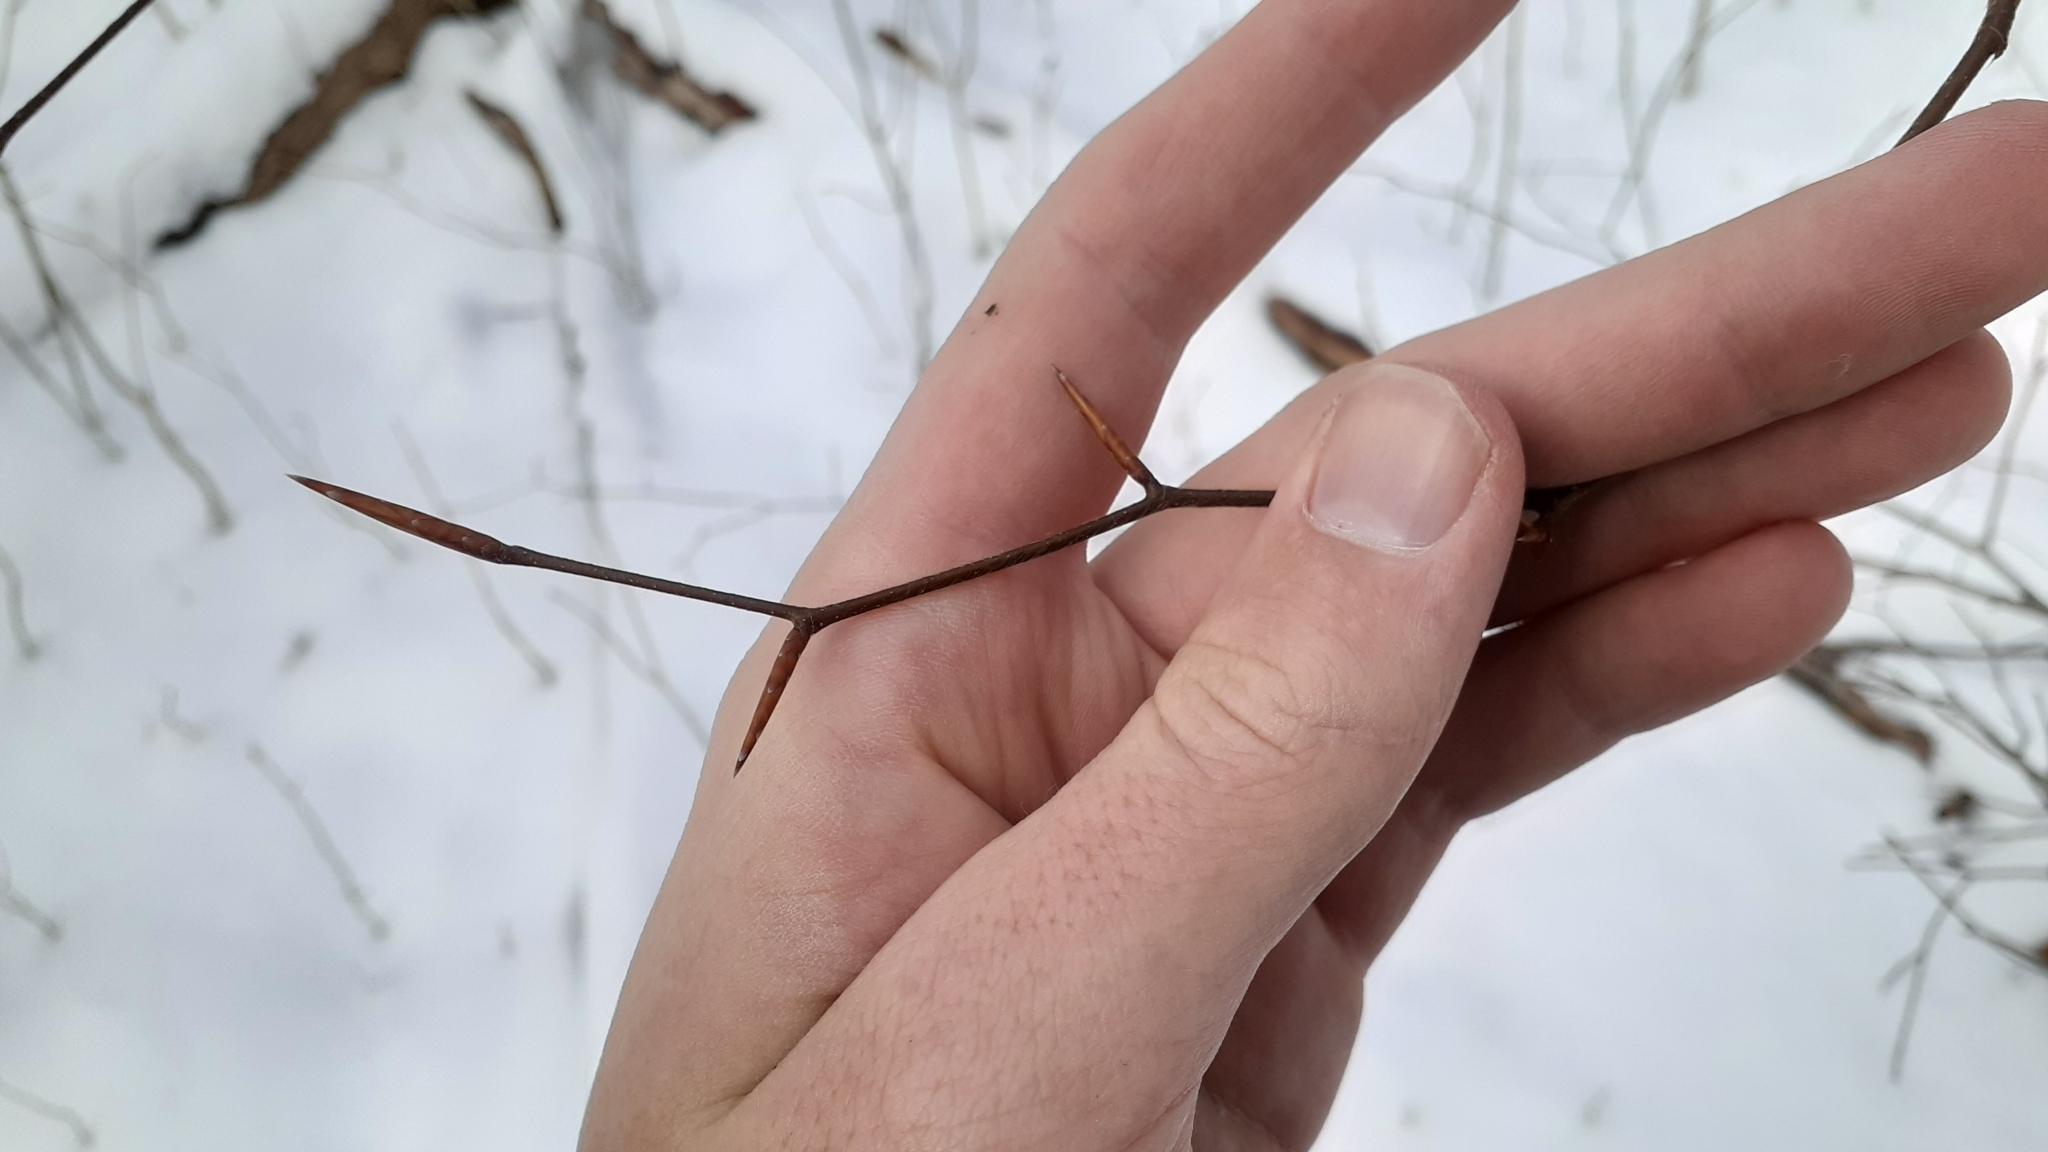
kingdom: Plantae
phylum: Tracheophyta
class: Magnoliopsida
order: Fagales
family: Fagaceae
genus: Fagus
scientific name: Fagus grandifolia
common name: American beech
